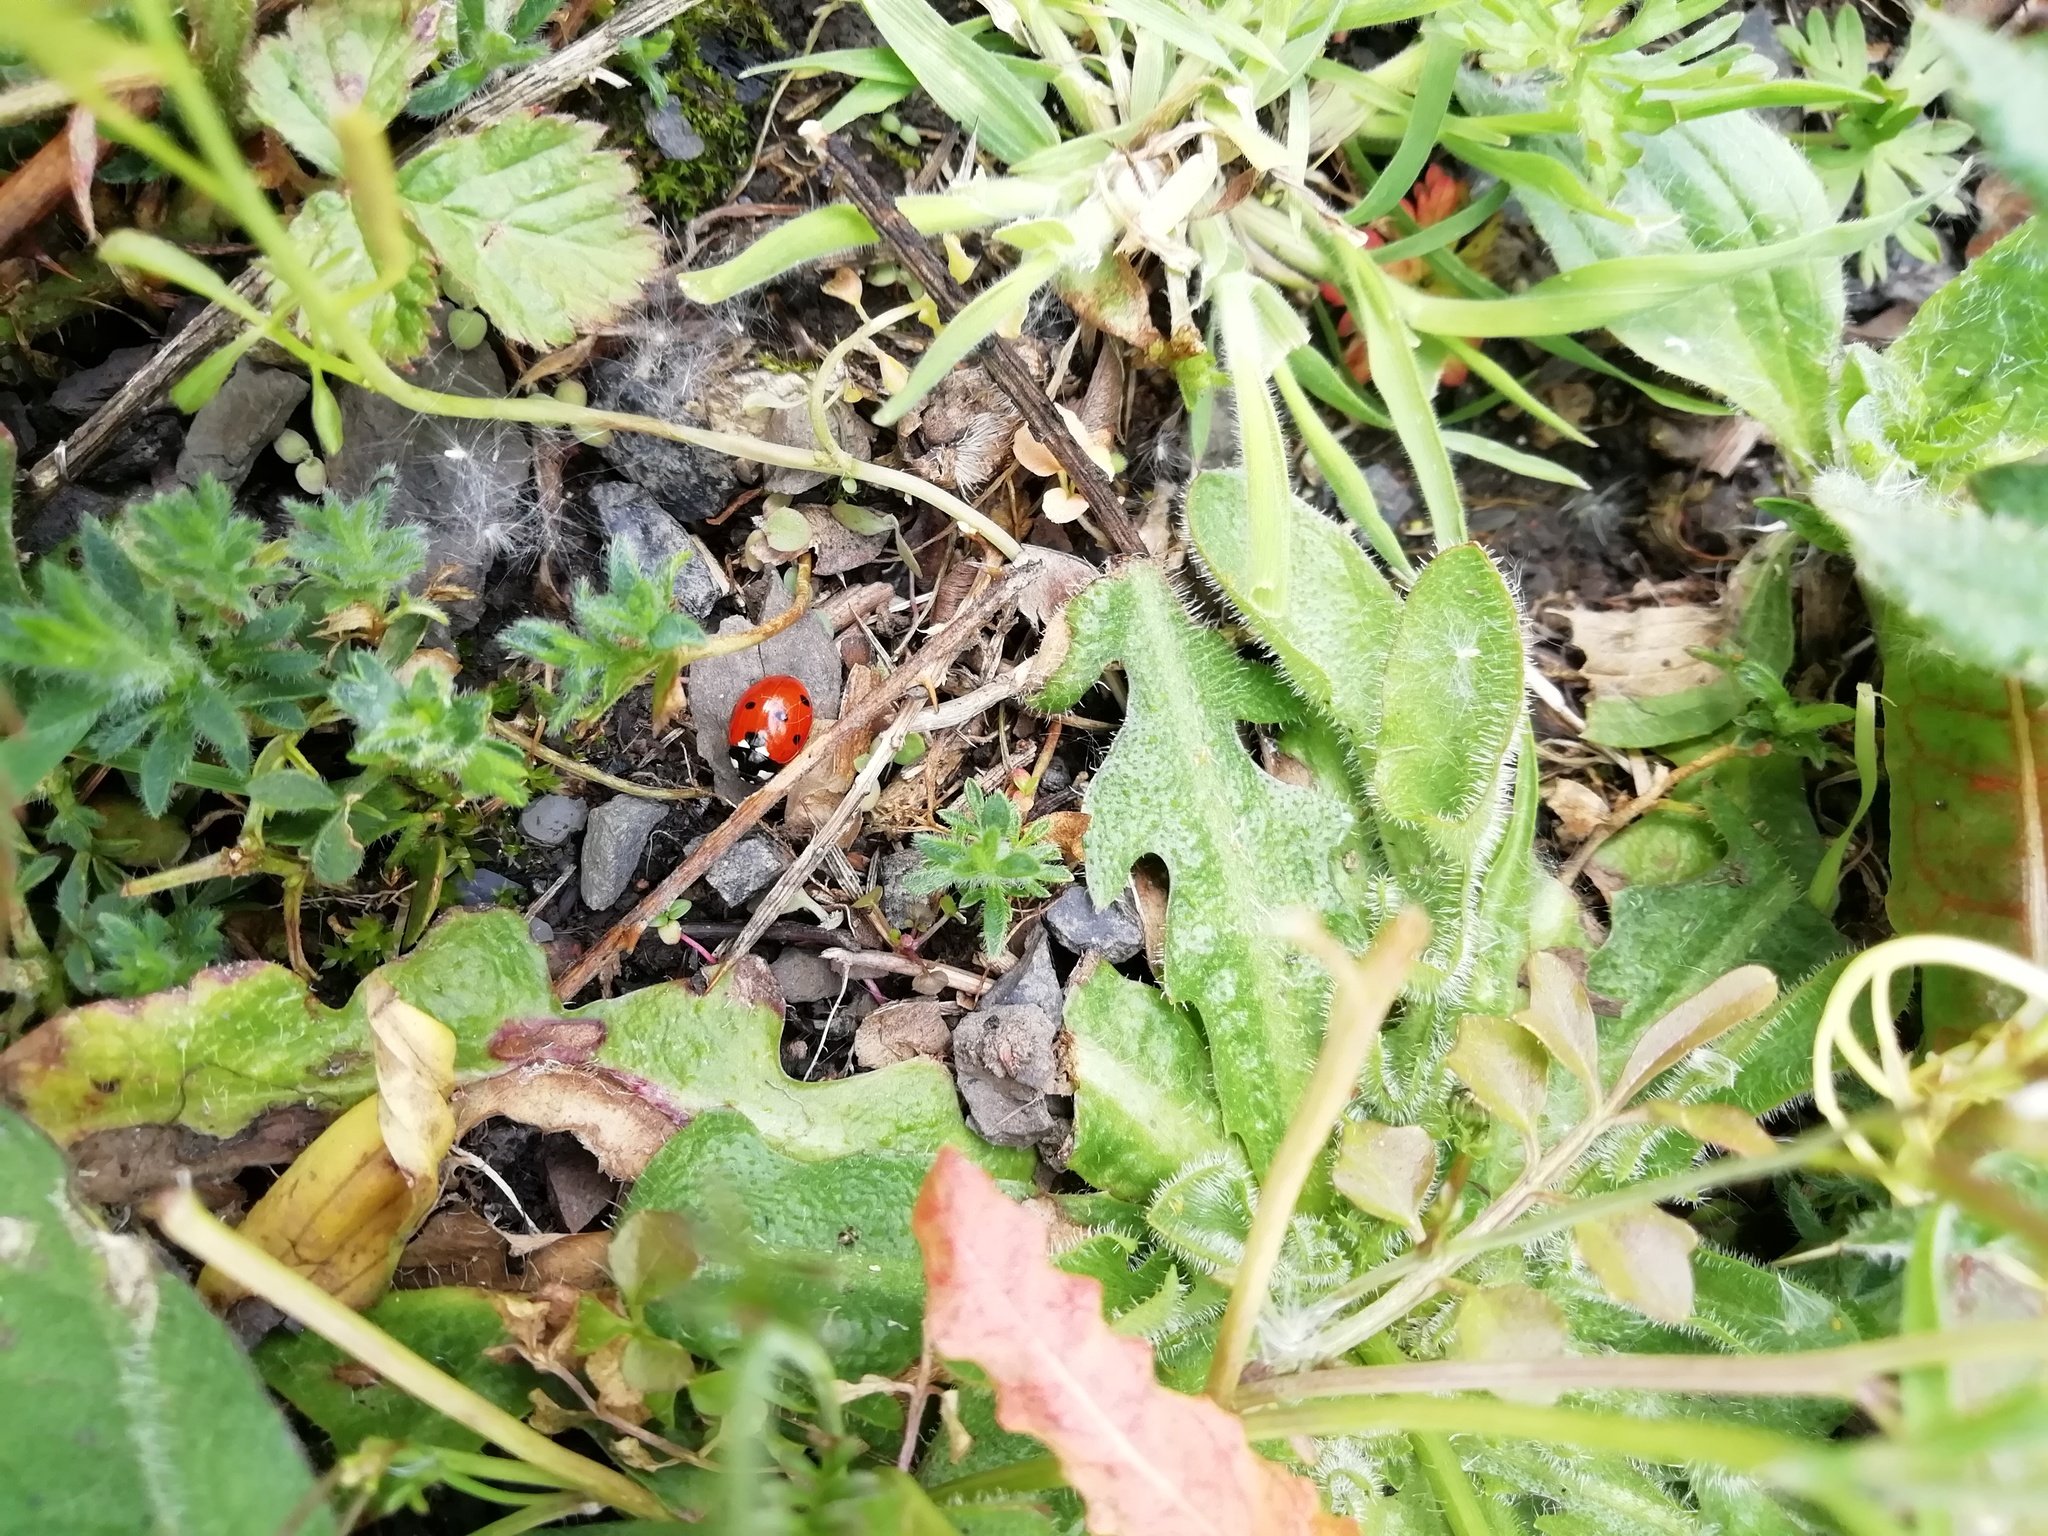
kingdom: Animalia
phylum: Arthropoda
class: Insecta
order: Coleoptera
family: Coccinellidae
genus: Coccinella
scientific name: Coccinella septempunctata
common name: Sevenspotted lady beetle
